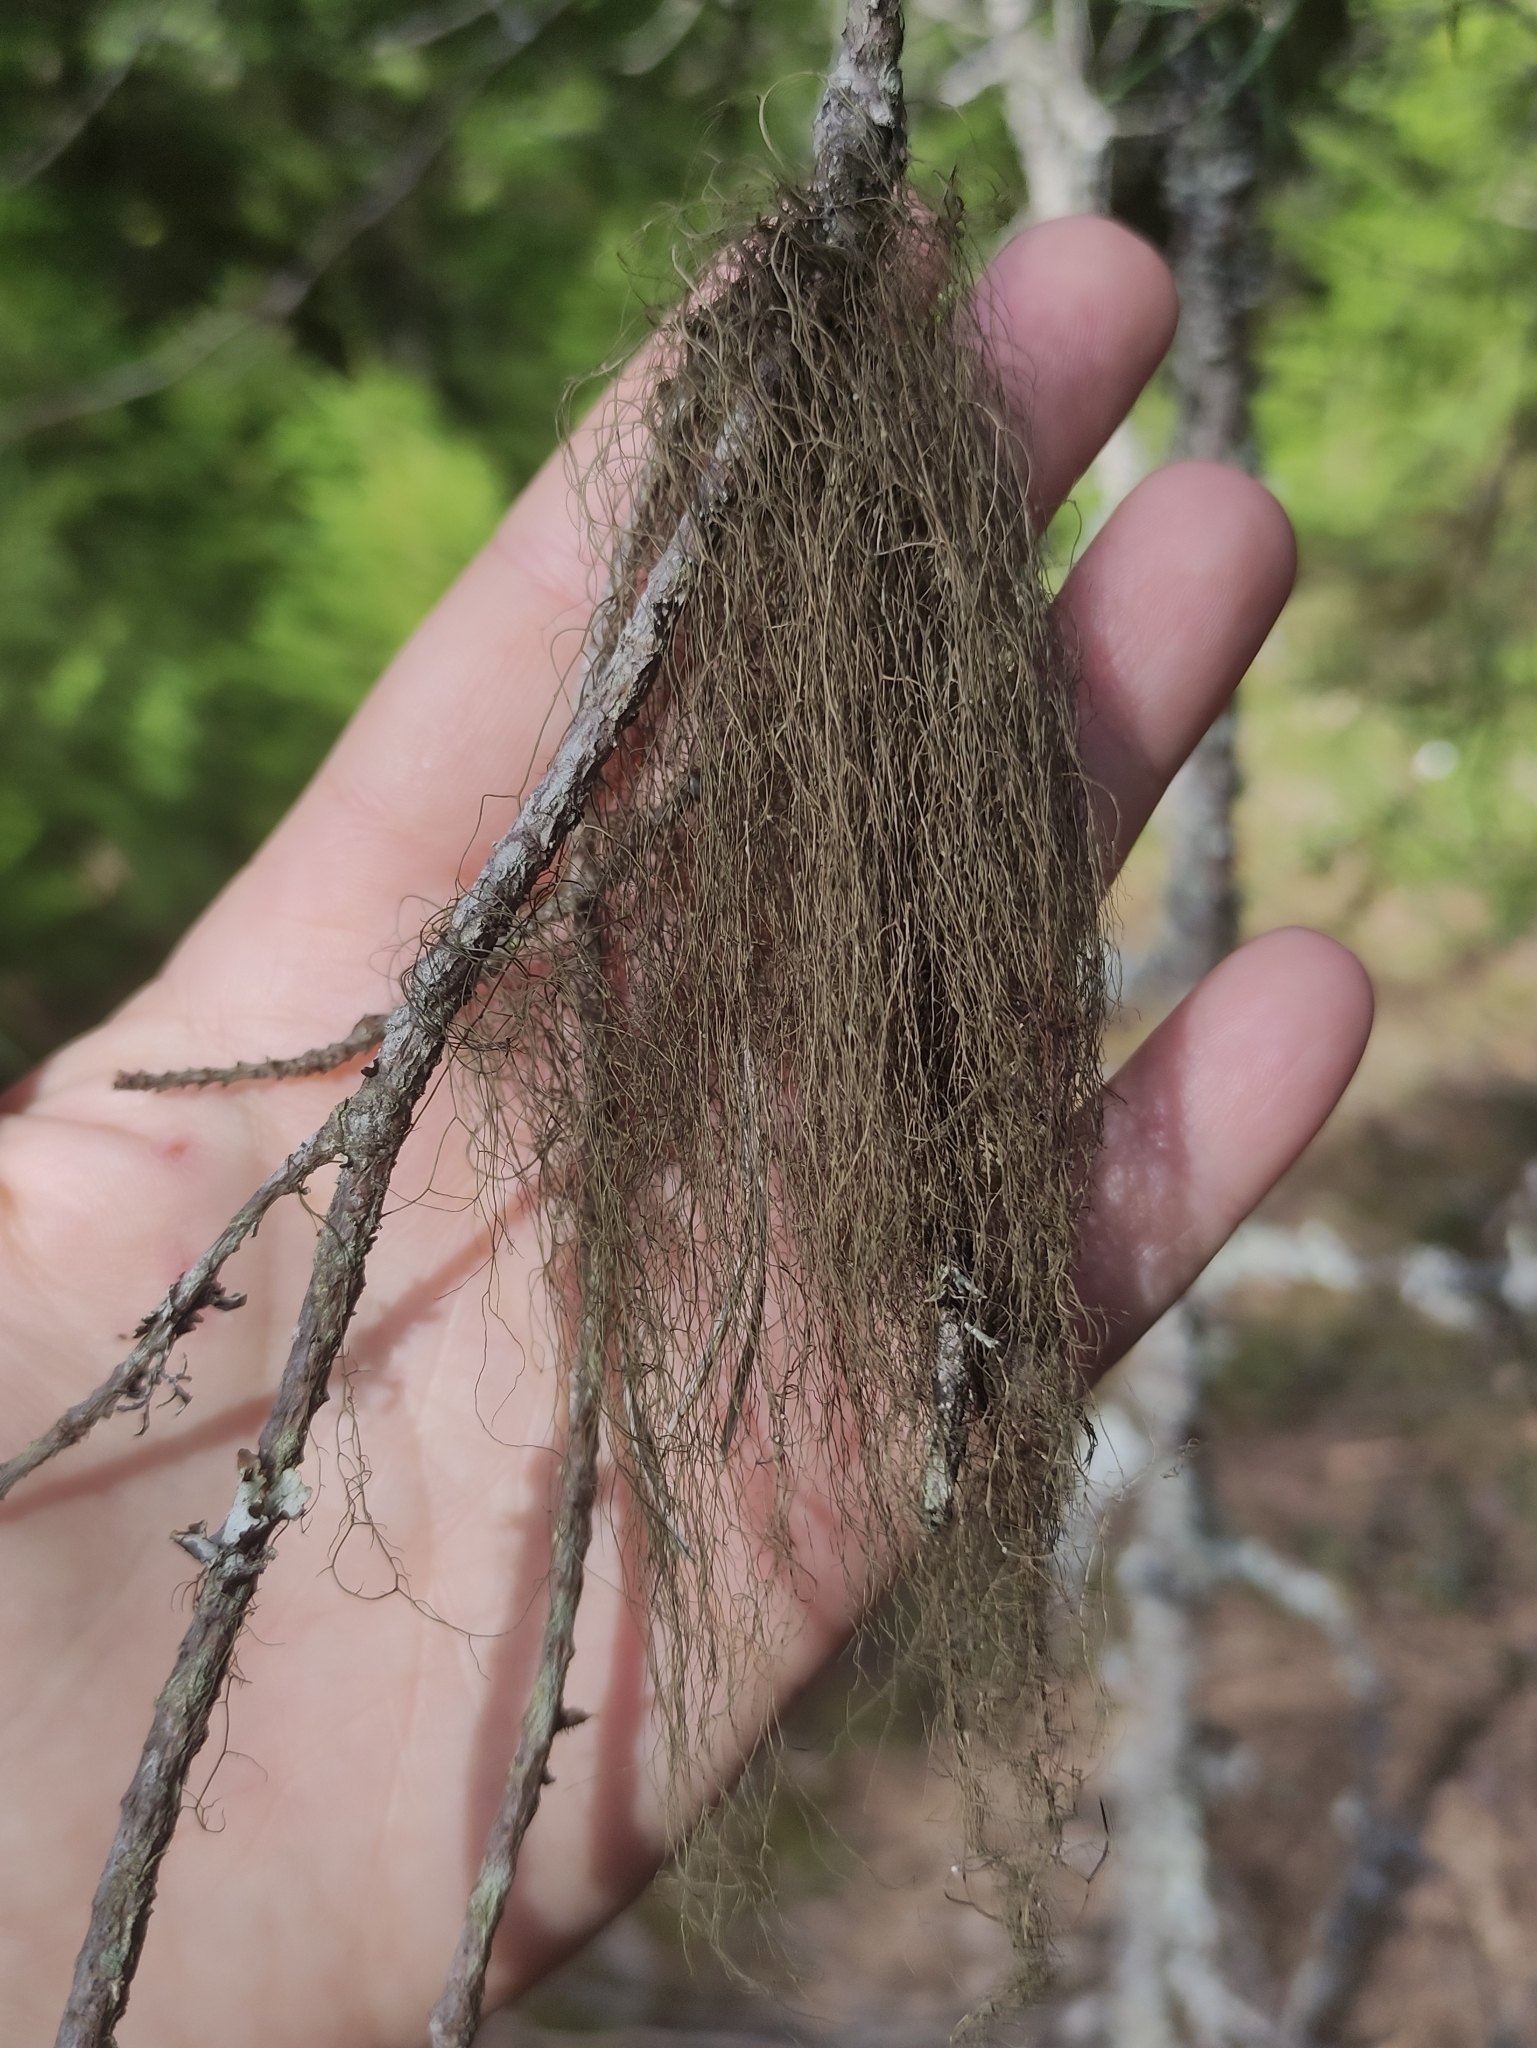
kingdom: Fungi
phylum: Ascomycota
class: Lecanoromycetes
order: Lecanorales
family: Parmeliaceae
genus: Bryoria
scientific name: Bryoria fuscescens
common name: Pale-footed horsehair lichen
